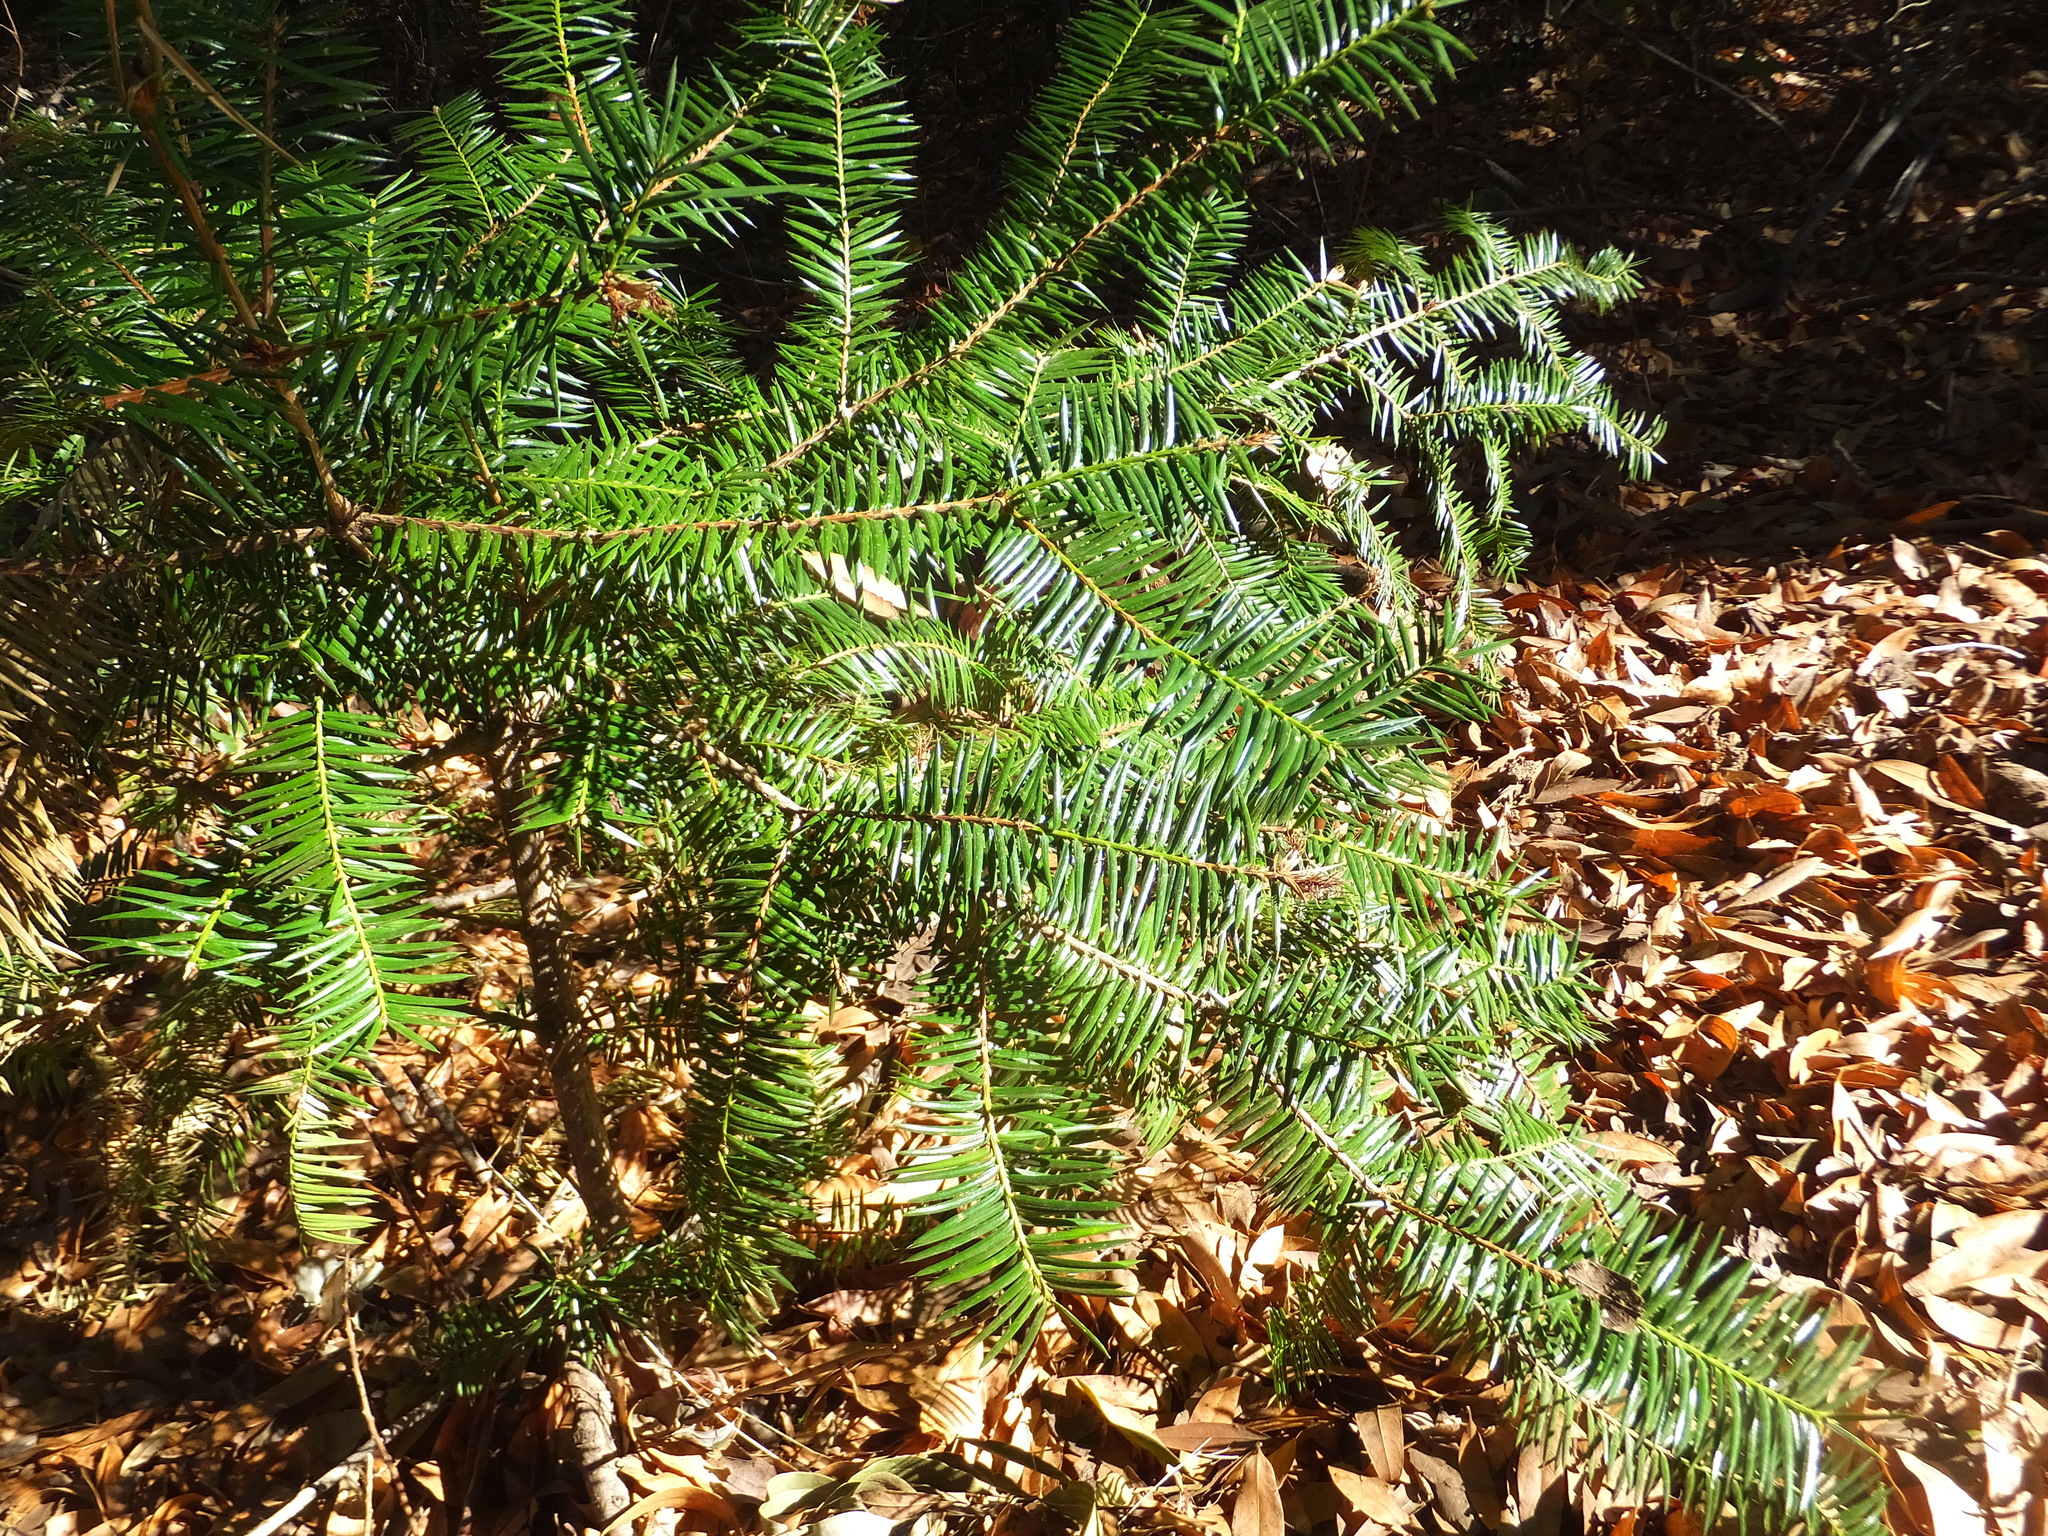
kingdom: Plantae
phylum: Tracheophyta
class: Pinopsida
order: Pinales
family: Taxaceae
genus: Torreya
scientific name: Torreya californica
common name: California torreya
